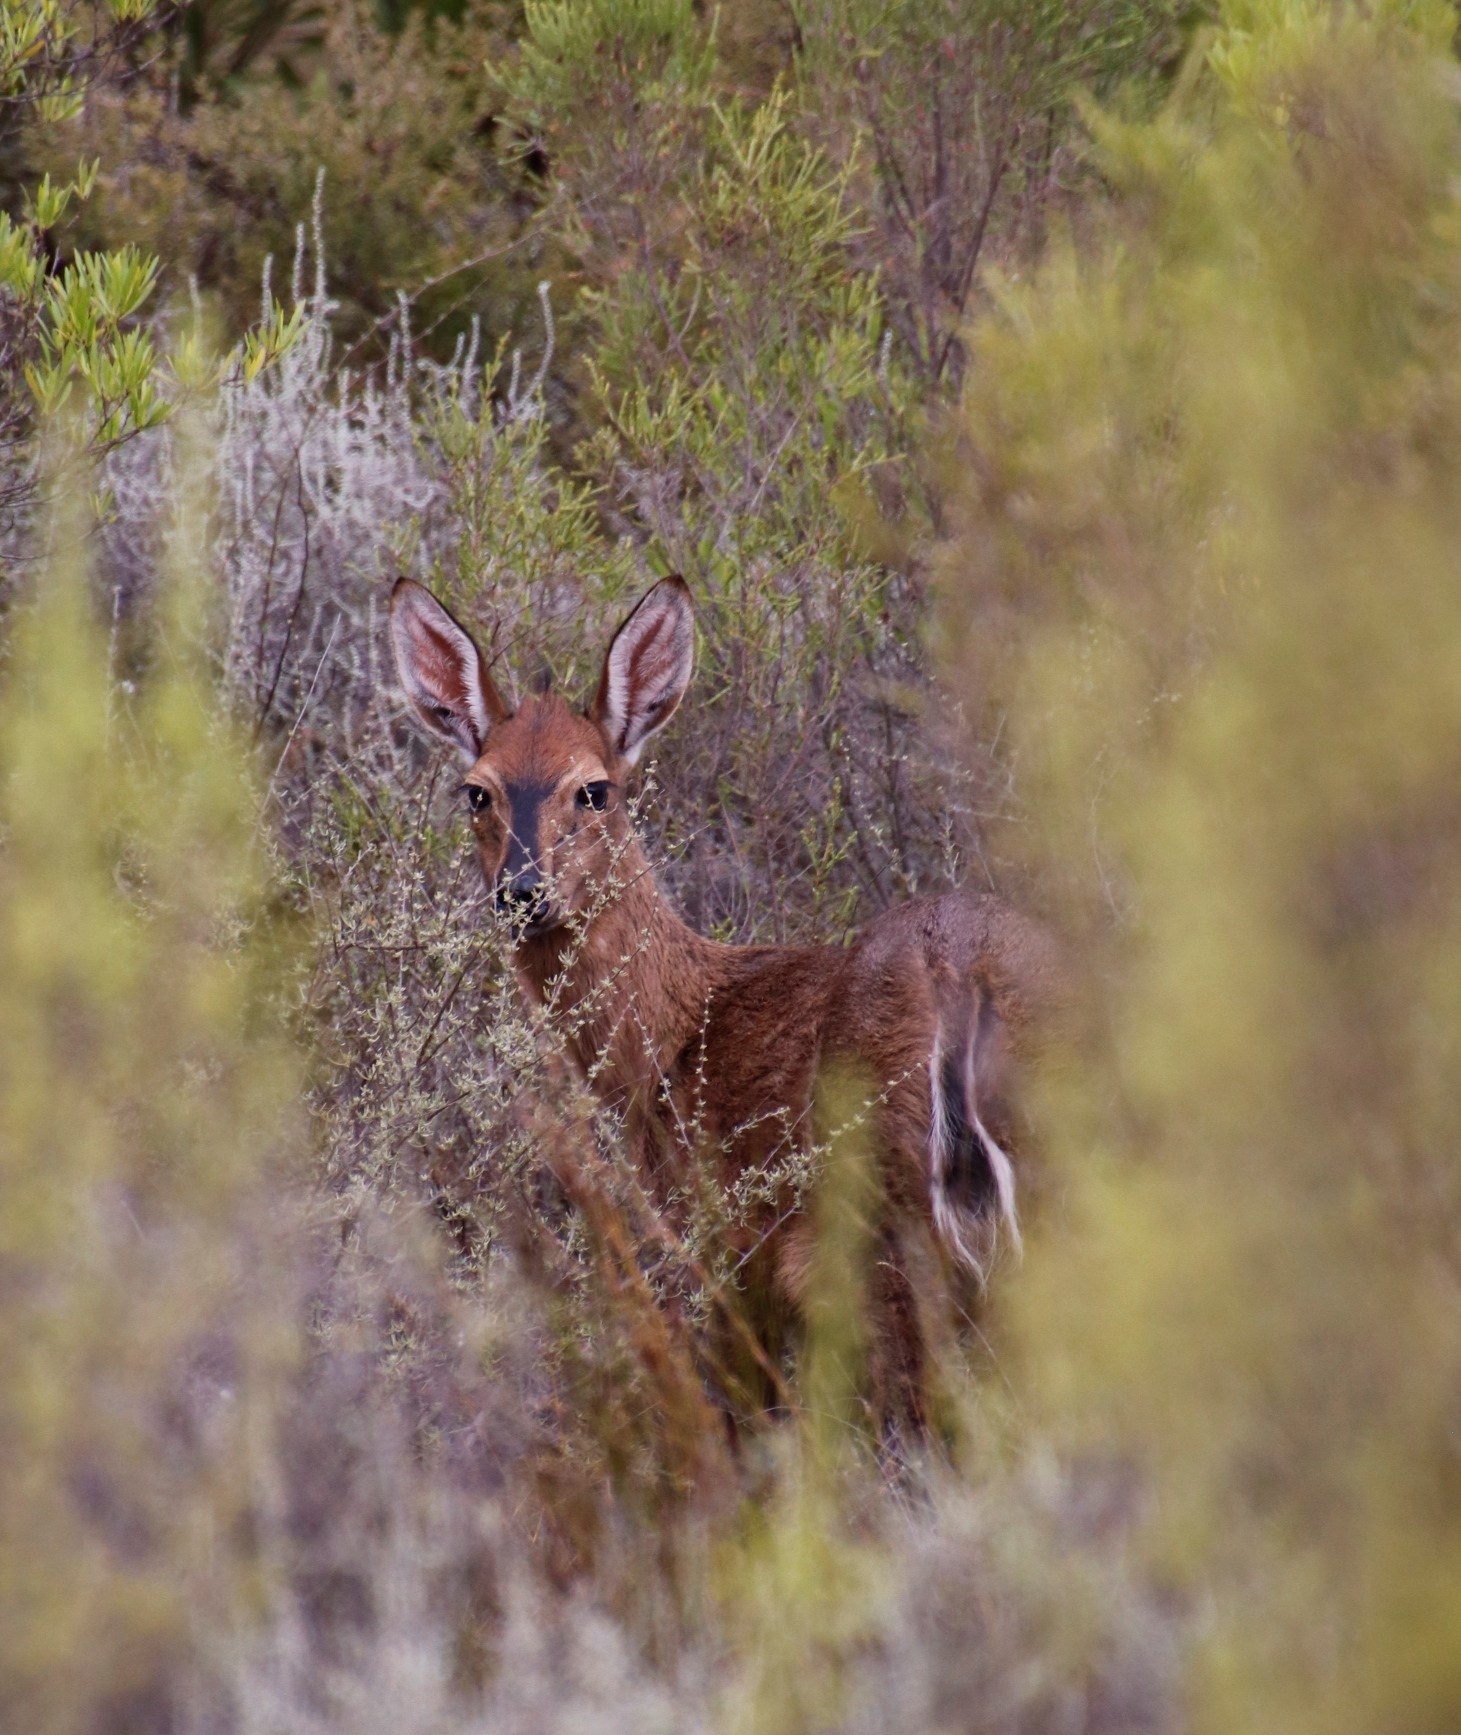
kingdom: Animalia
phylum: Chordata
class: Mammalia
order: Artiodactyla
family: Bovidae
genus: Sylvicapra
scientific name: Sylvicapra grimmia
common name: Bush duiker
